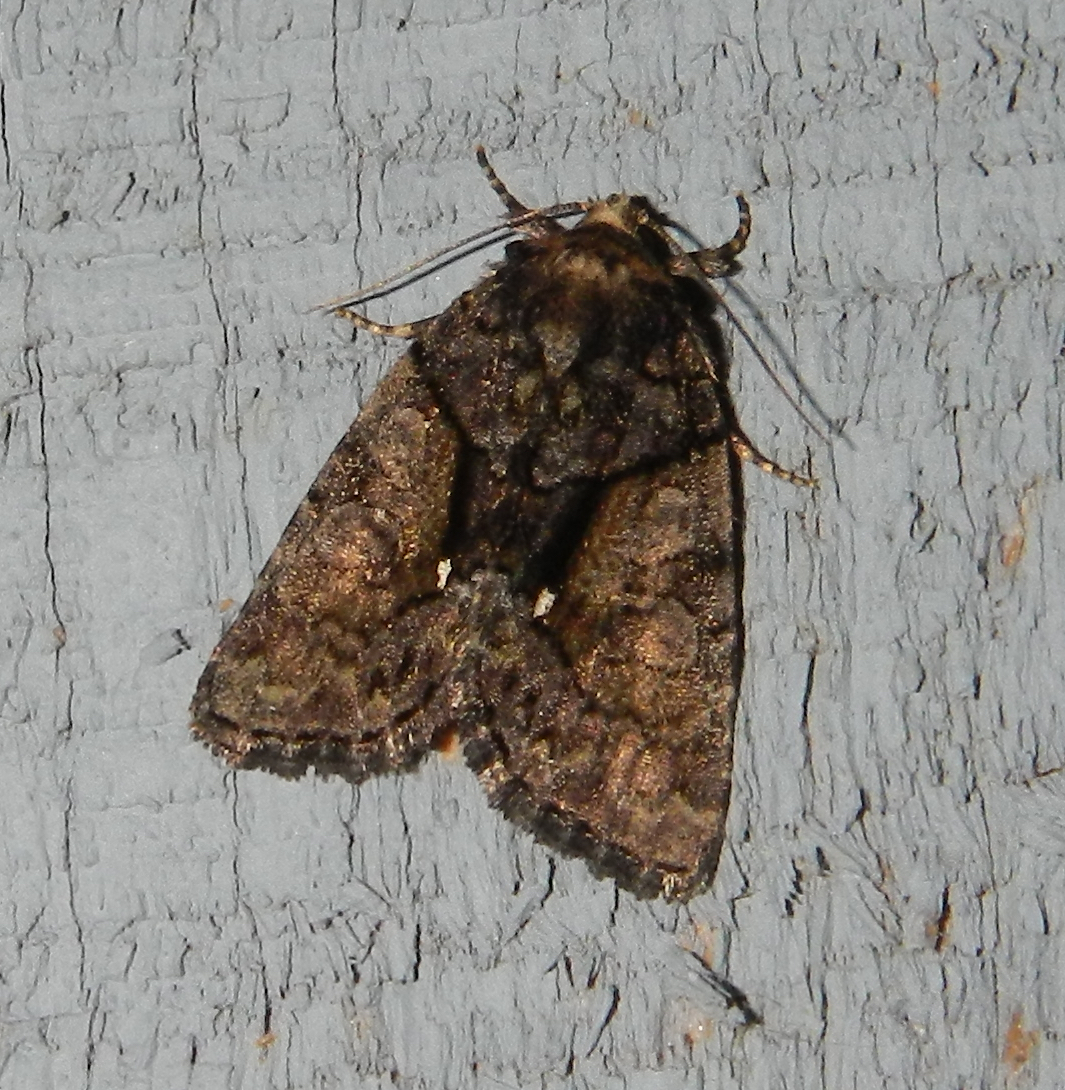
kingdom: Animalia
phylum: Arthropoda
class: Insecta
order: Lepidoptera
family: Noctuidae
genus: Chytonix
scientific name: Chytonix palliatricula
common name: Cloaked marvel
